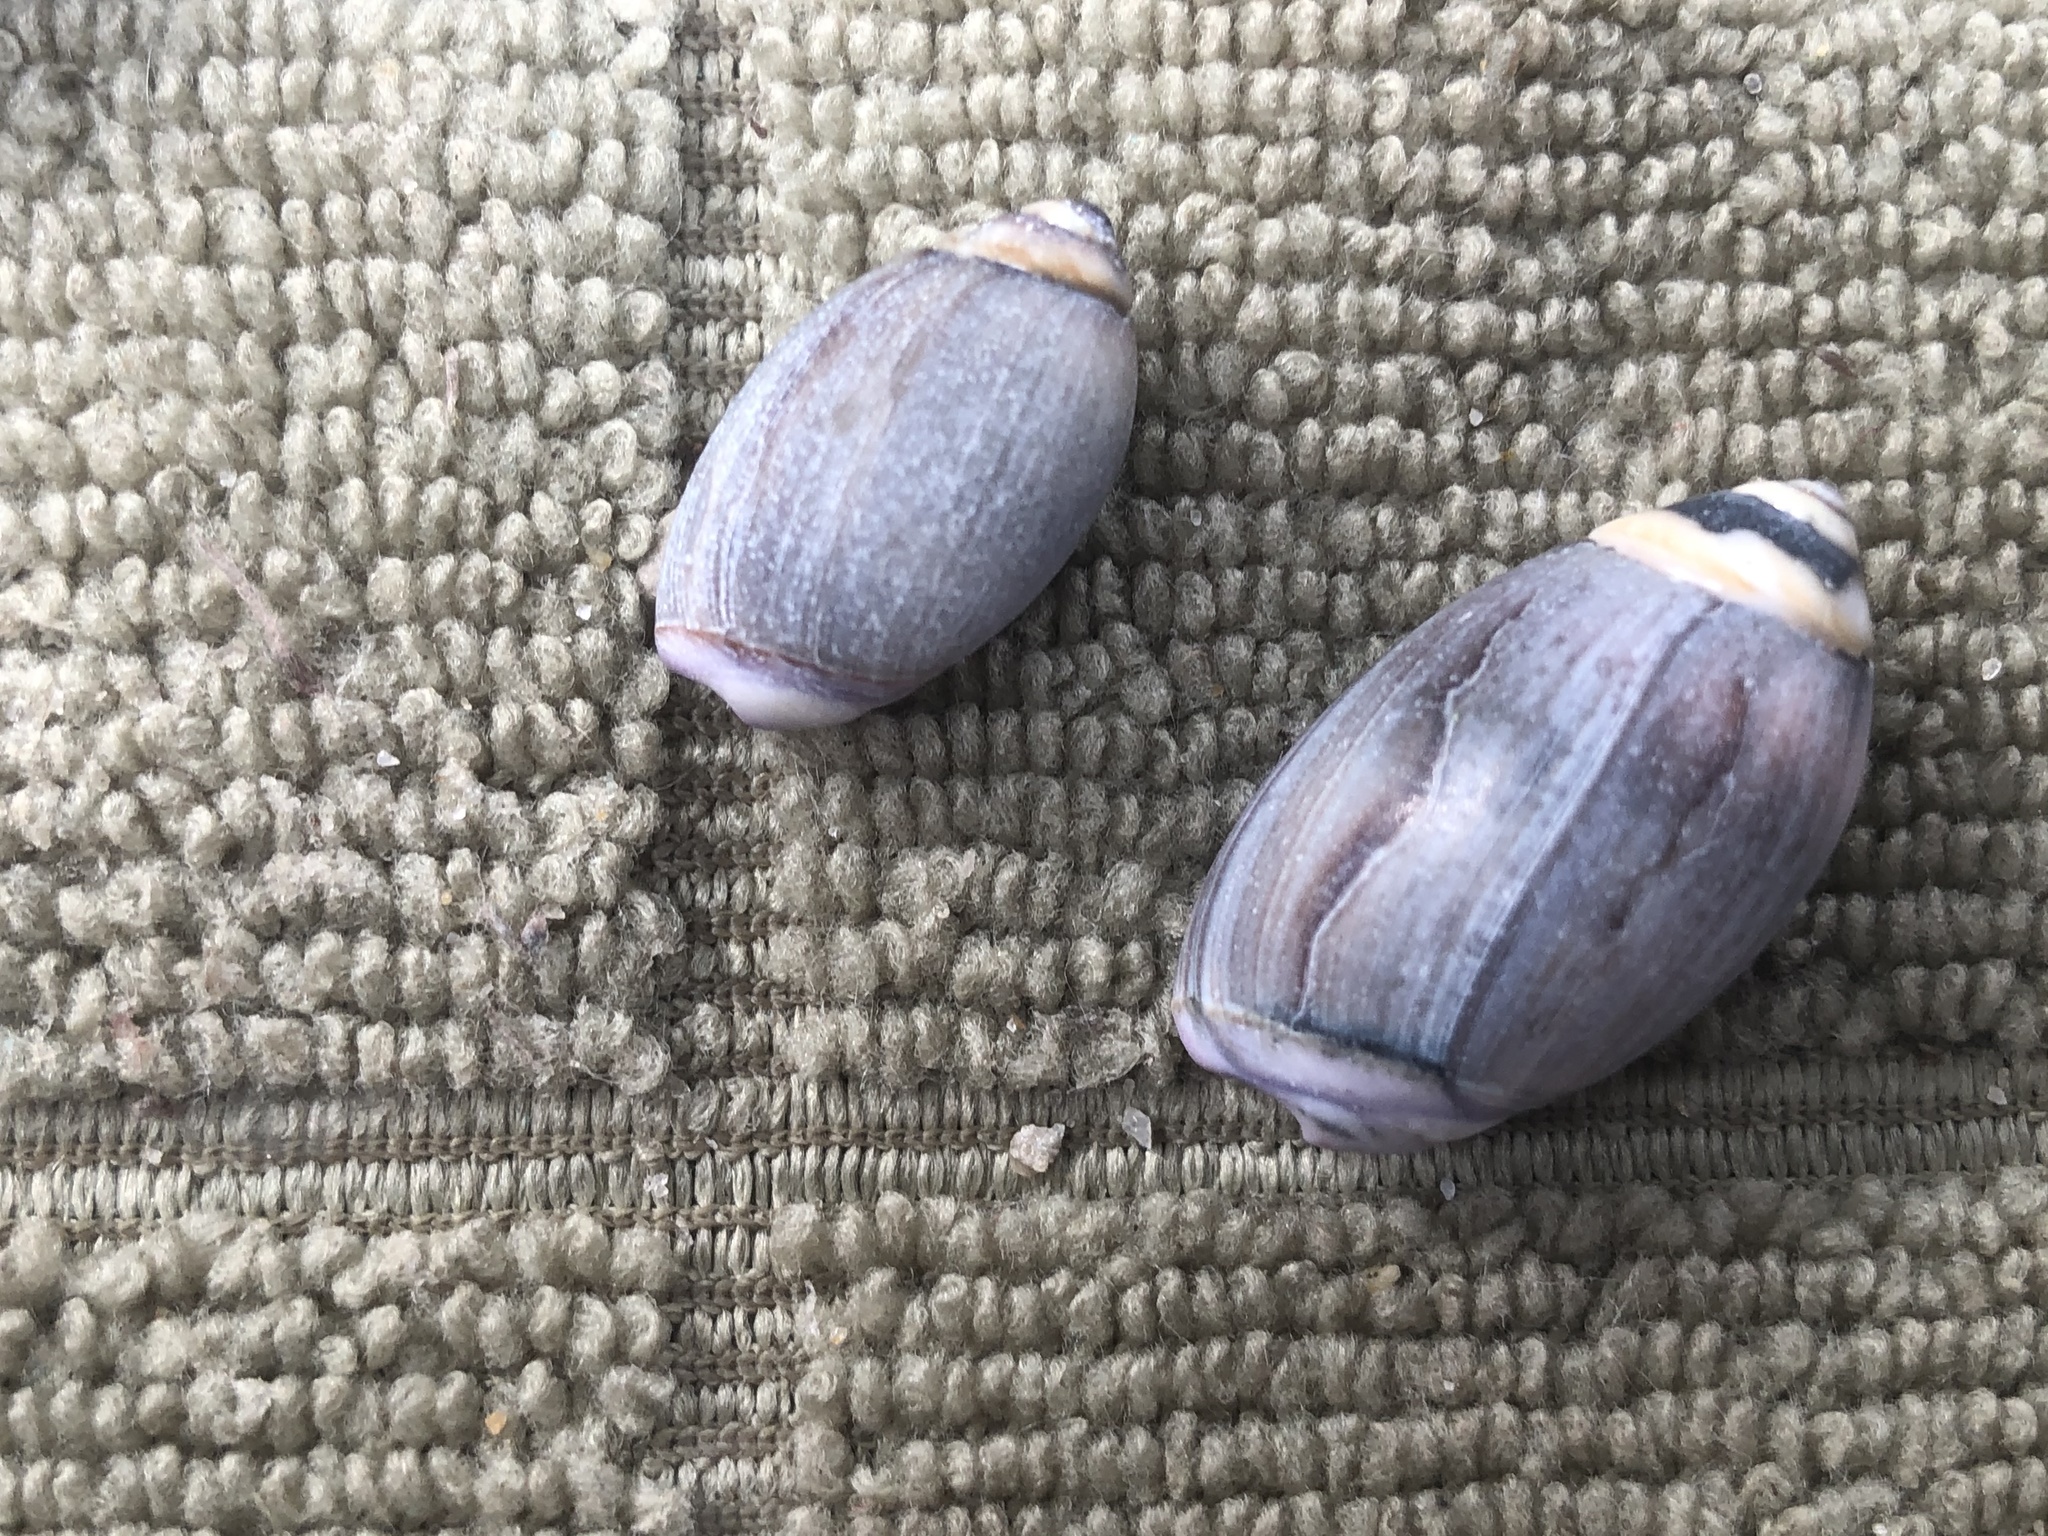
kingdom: Animalia
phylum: Mollusca
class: Gastropoda
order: Neogastropoda
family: Olividae
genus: Callianax
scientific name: Callianax biplicata
